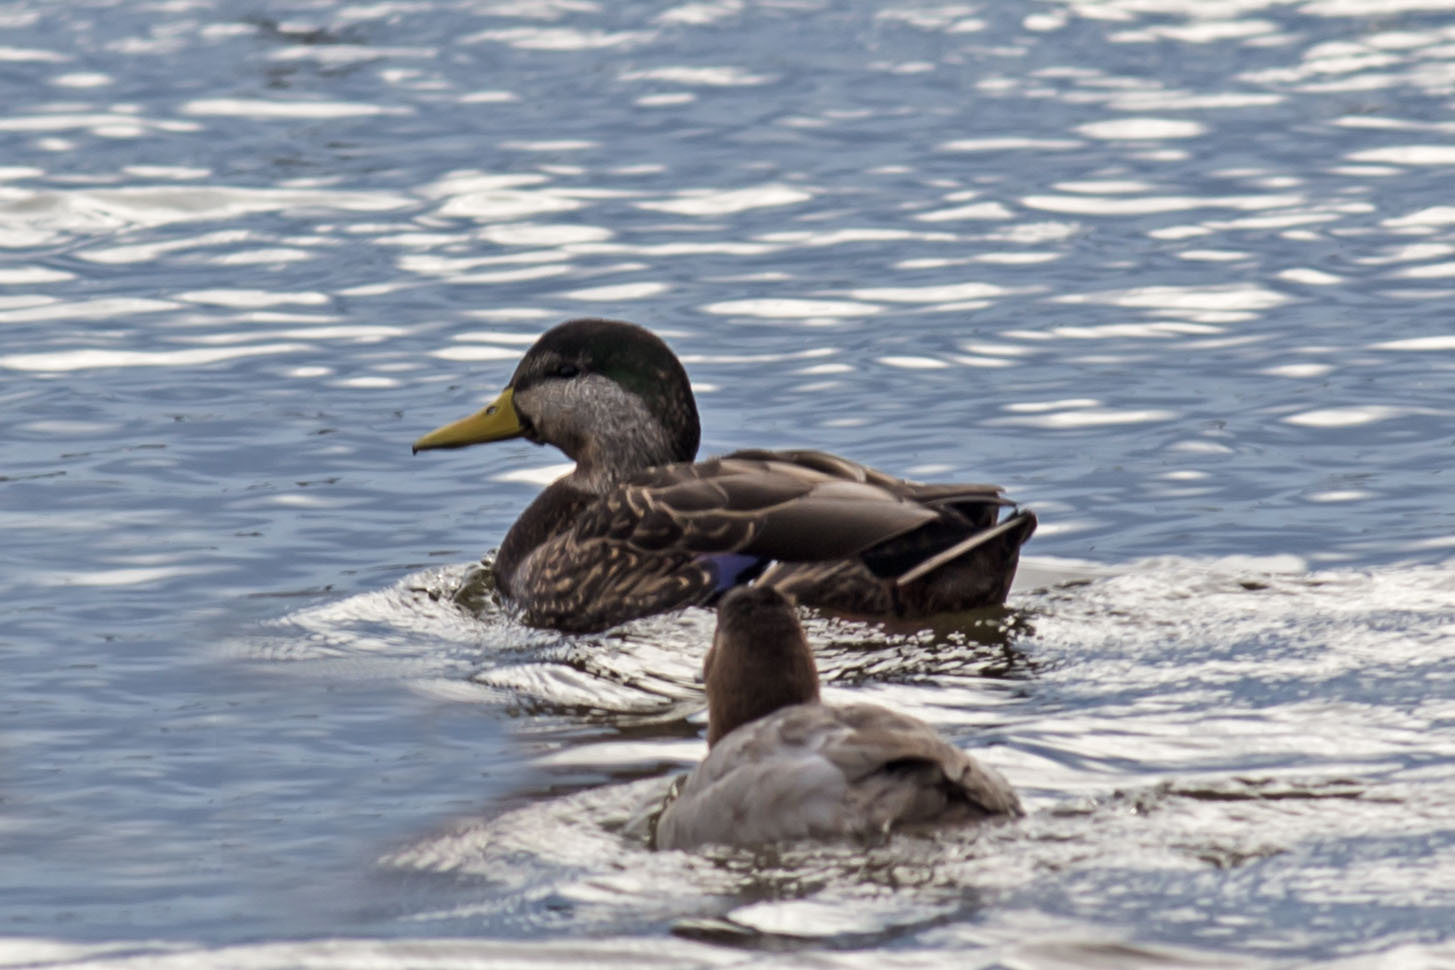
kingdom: Animalia
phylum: Chordata
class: Aves
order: Anseriformes
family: Anatidae
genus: Anas
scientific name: Anas
